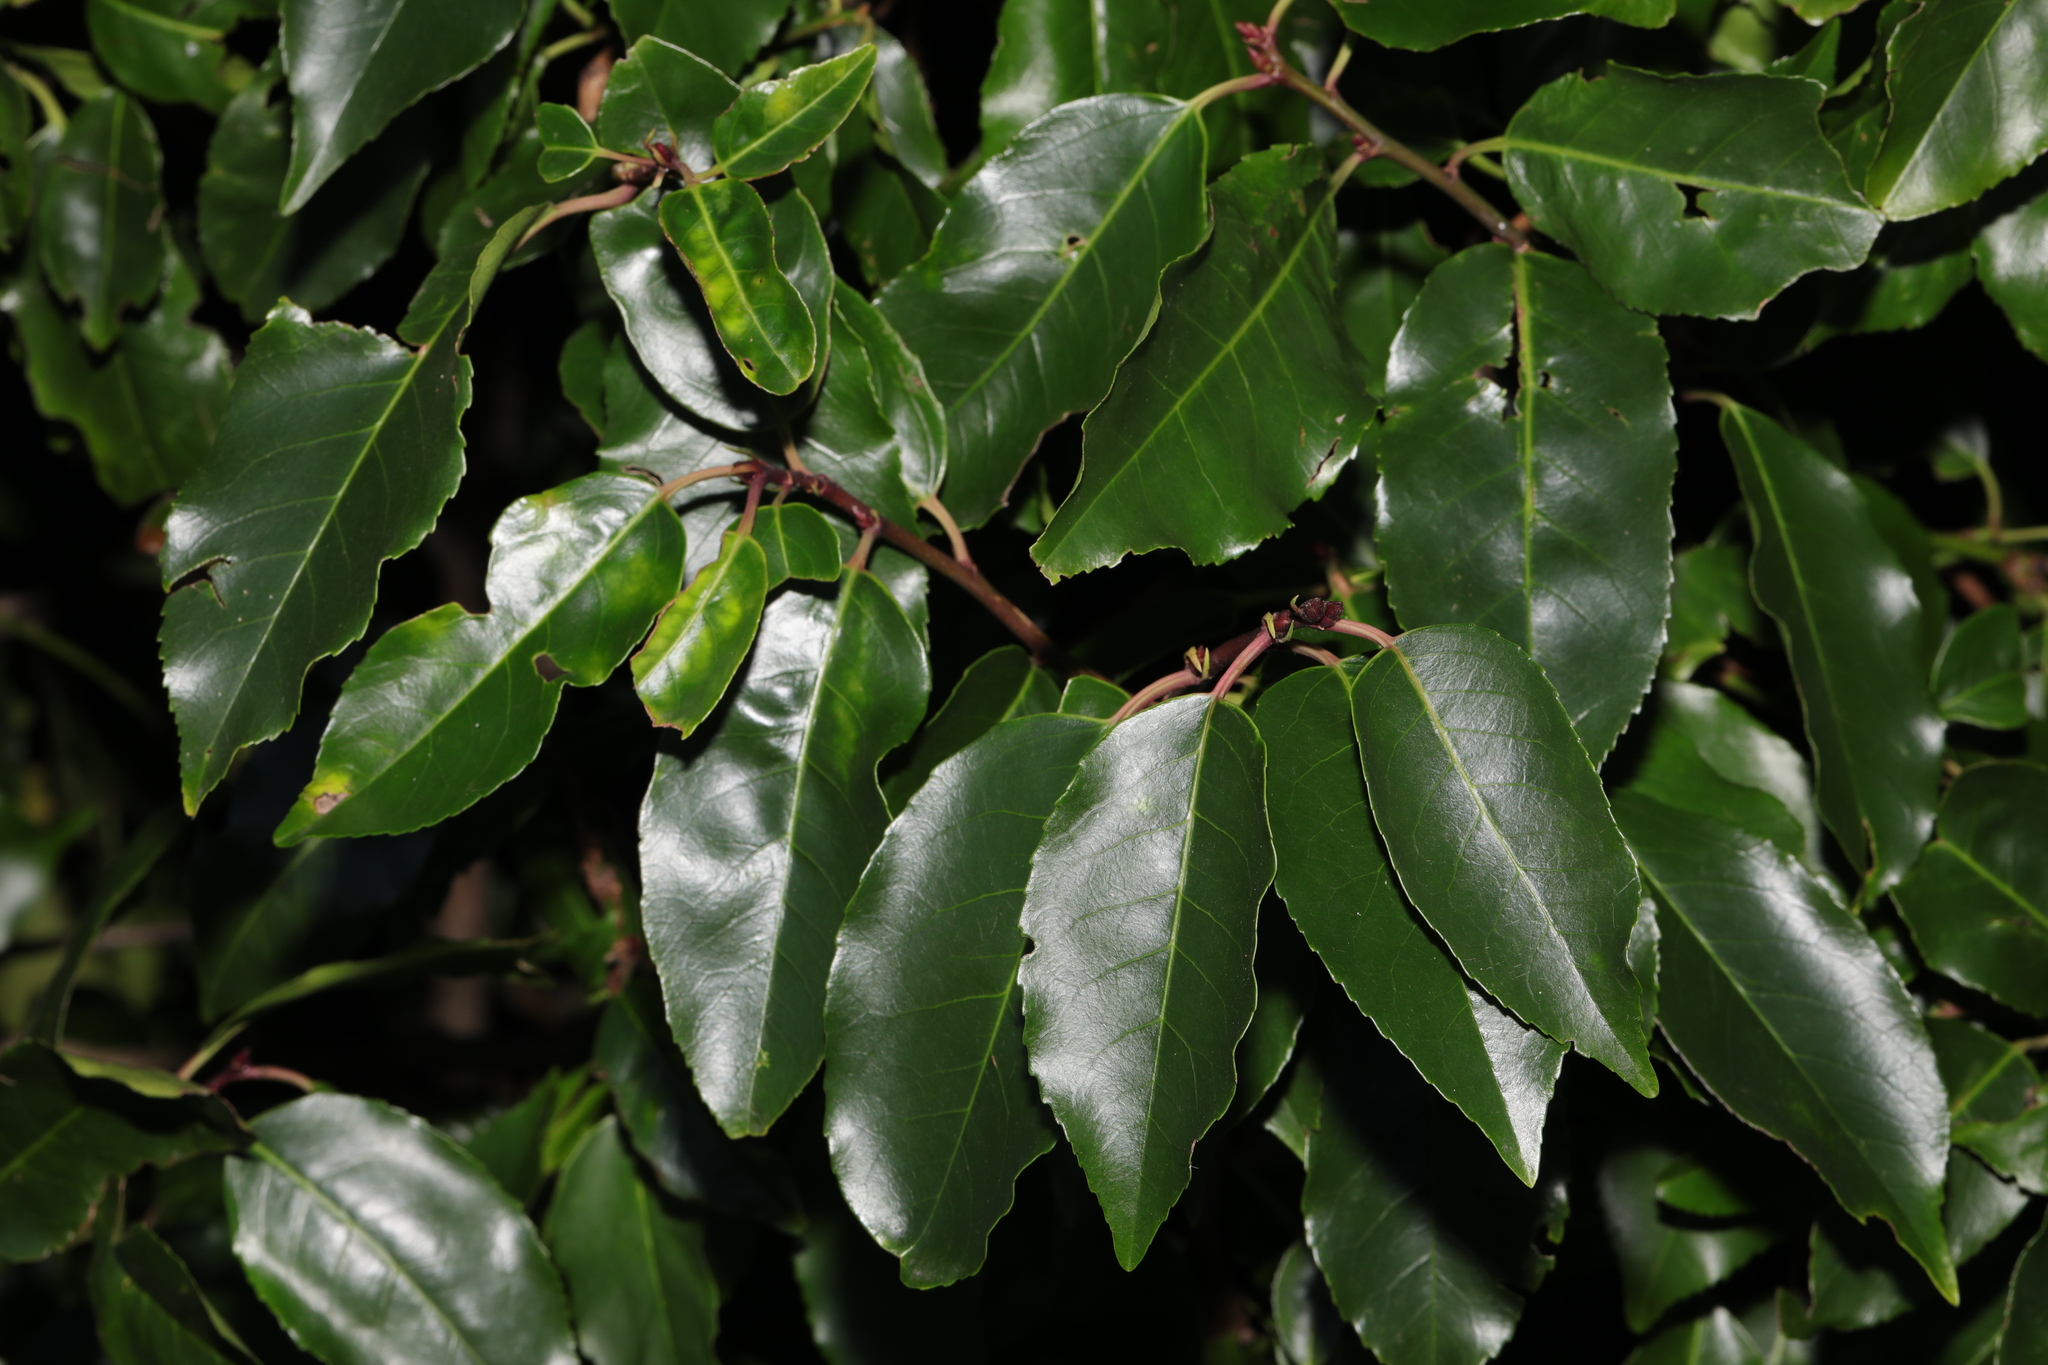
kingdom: Plantae
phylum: Tracheophyta
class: Magnoliopsida
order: Rosales
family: Rosaceae
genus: Prunus
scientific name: Prunus lusitanica
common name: Portugal laurel
